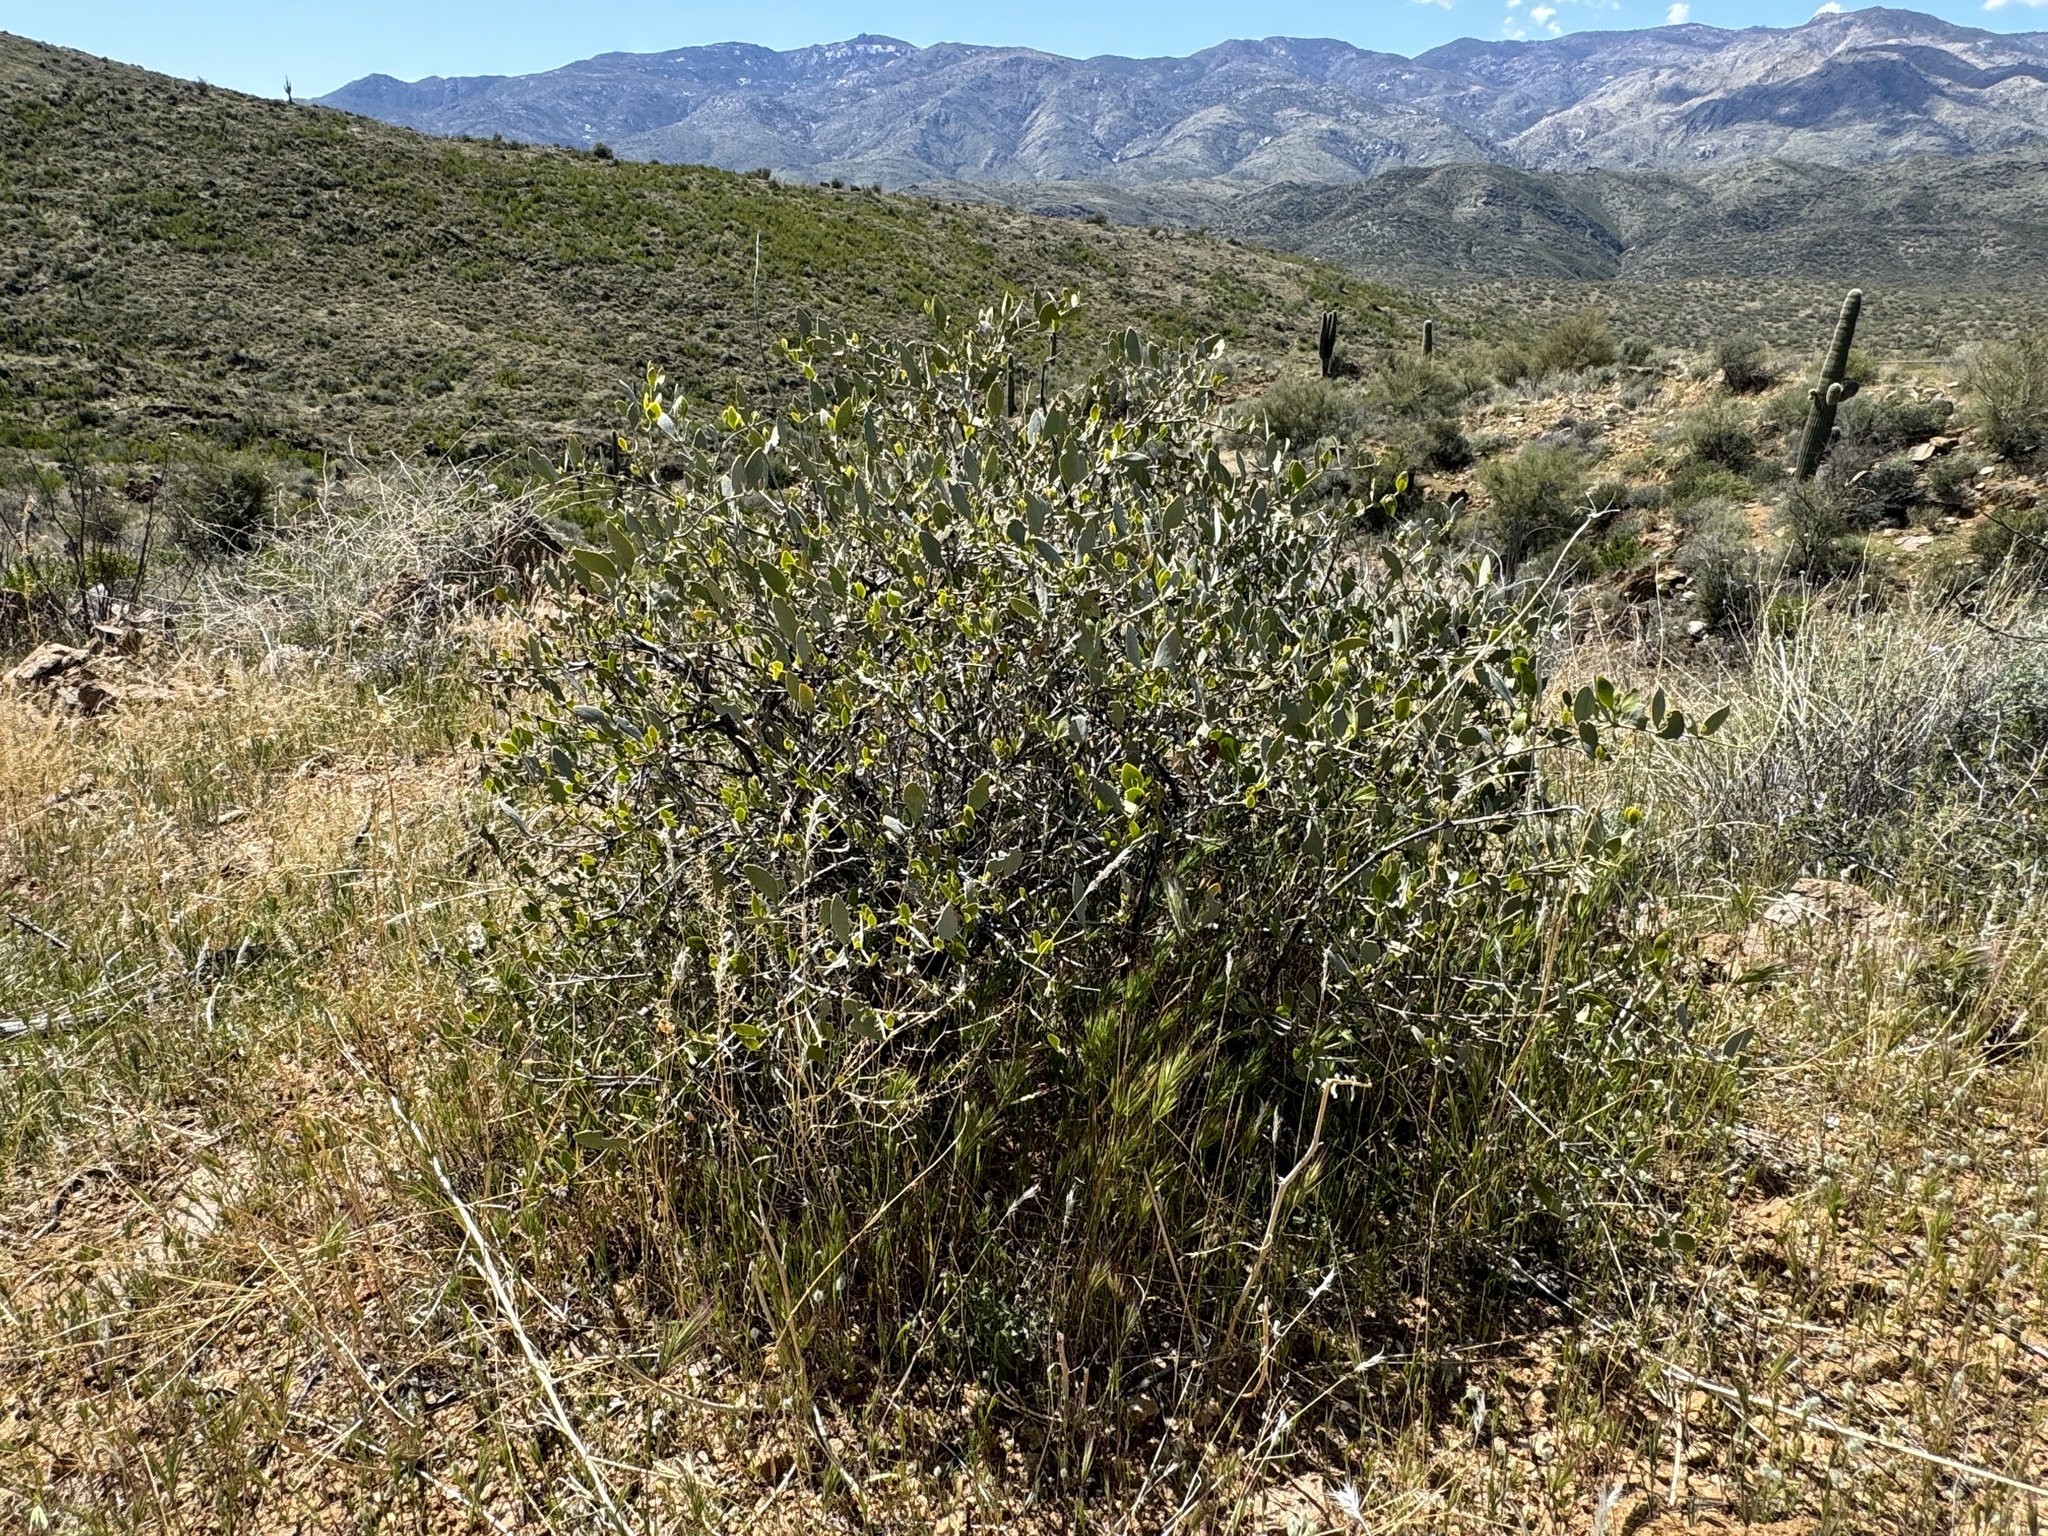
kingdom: Plantae
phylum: Tracheophyta
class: Magnoliopsida
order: Caryophyllales
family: Simmondsiaceae
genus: Simmondsia
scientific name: Simmondsia chinensis
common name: Jojoba
